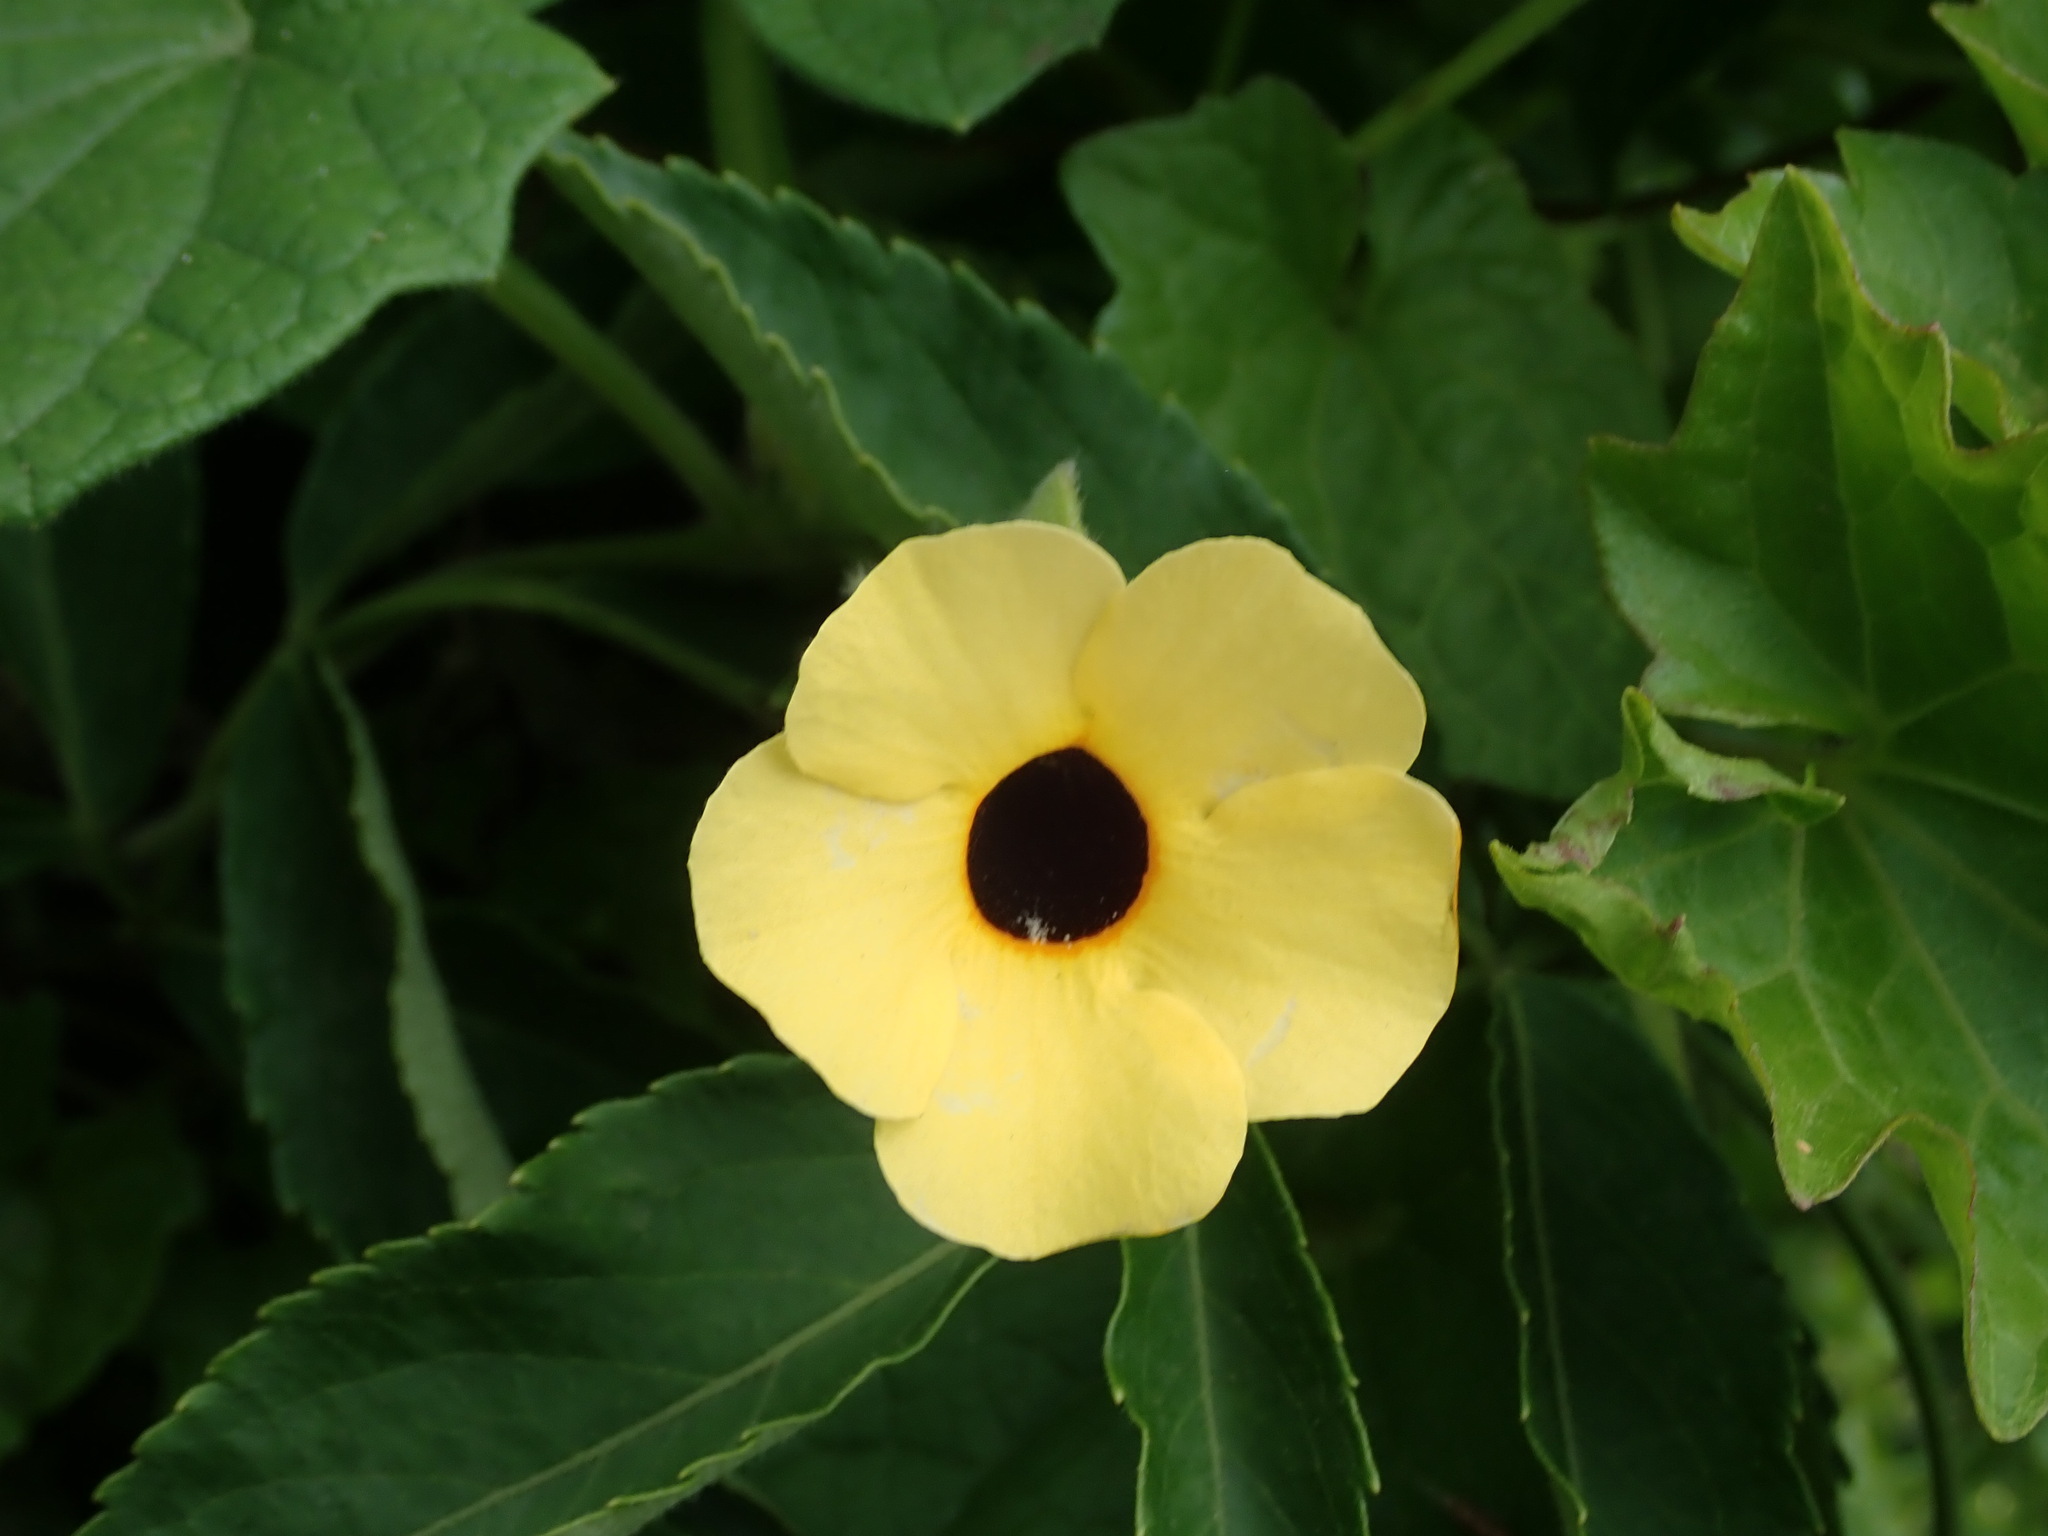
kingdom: Plantae
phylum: Tracheophyta
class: Magnoliopsida
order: Lamiales
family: Acanthaceae
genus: Thunbergia
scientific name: Thunbergia alata
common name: Blackeyed susan vine
